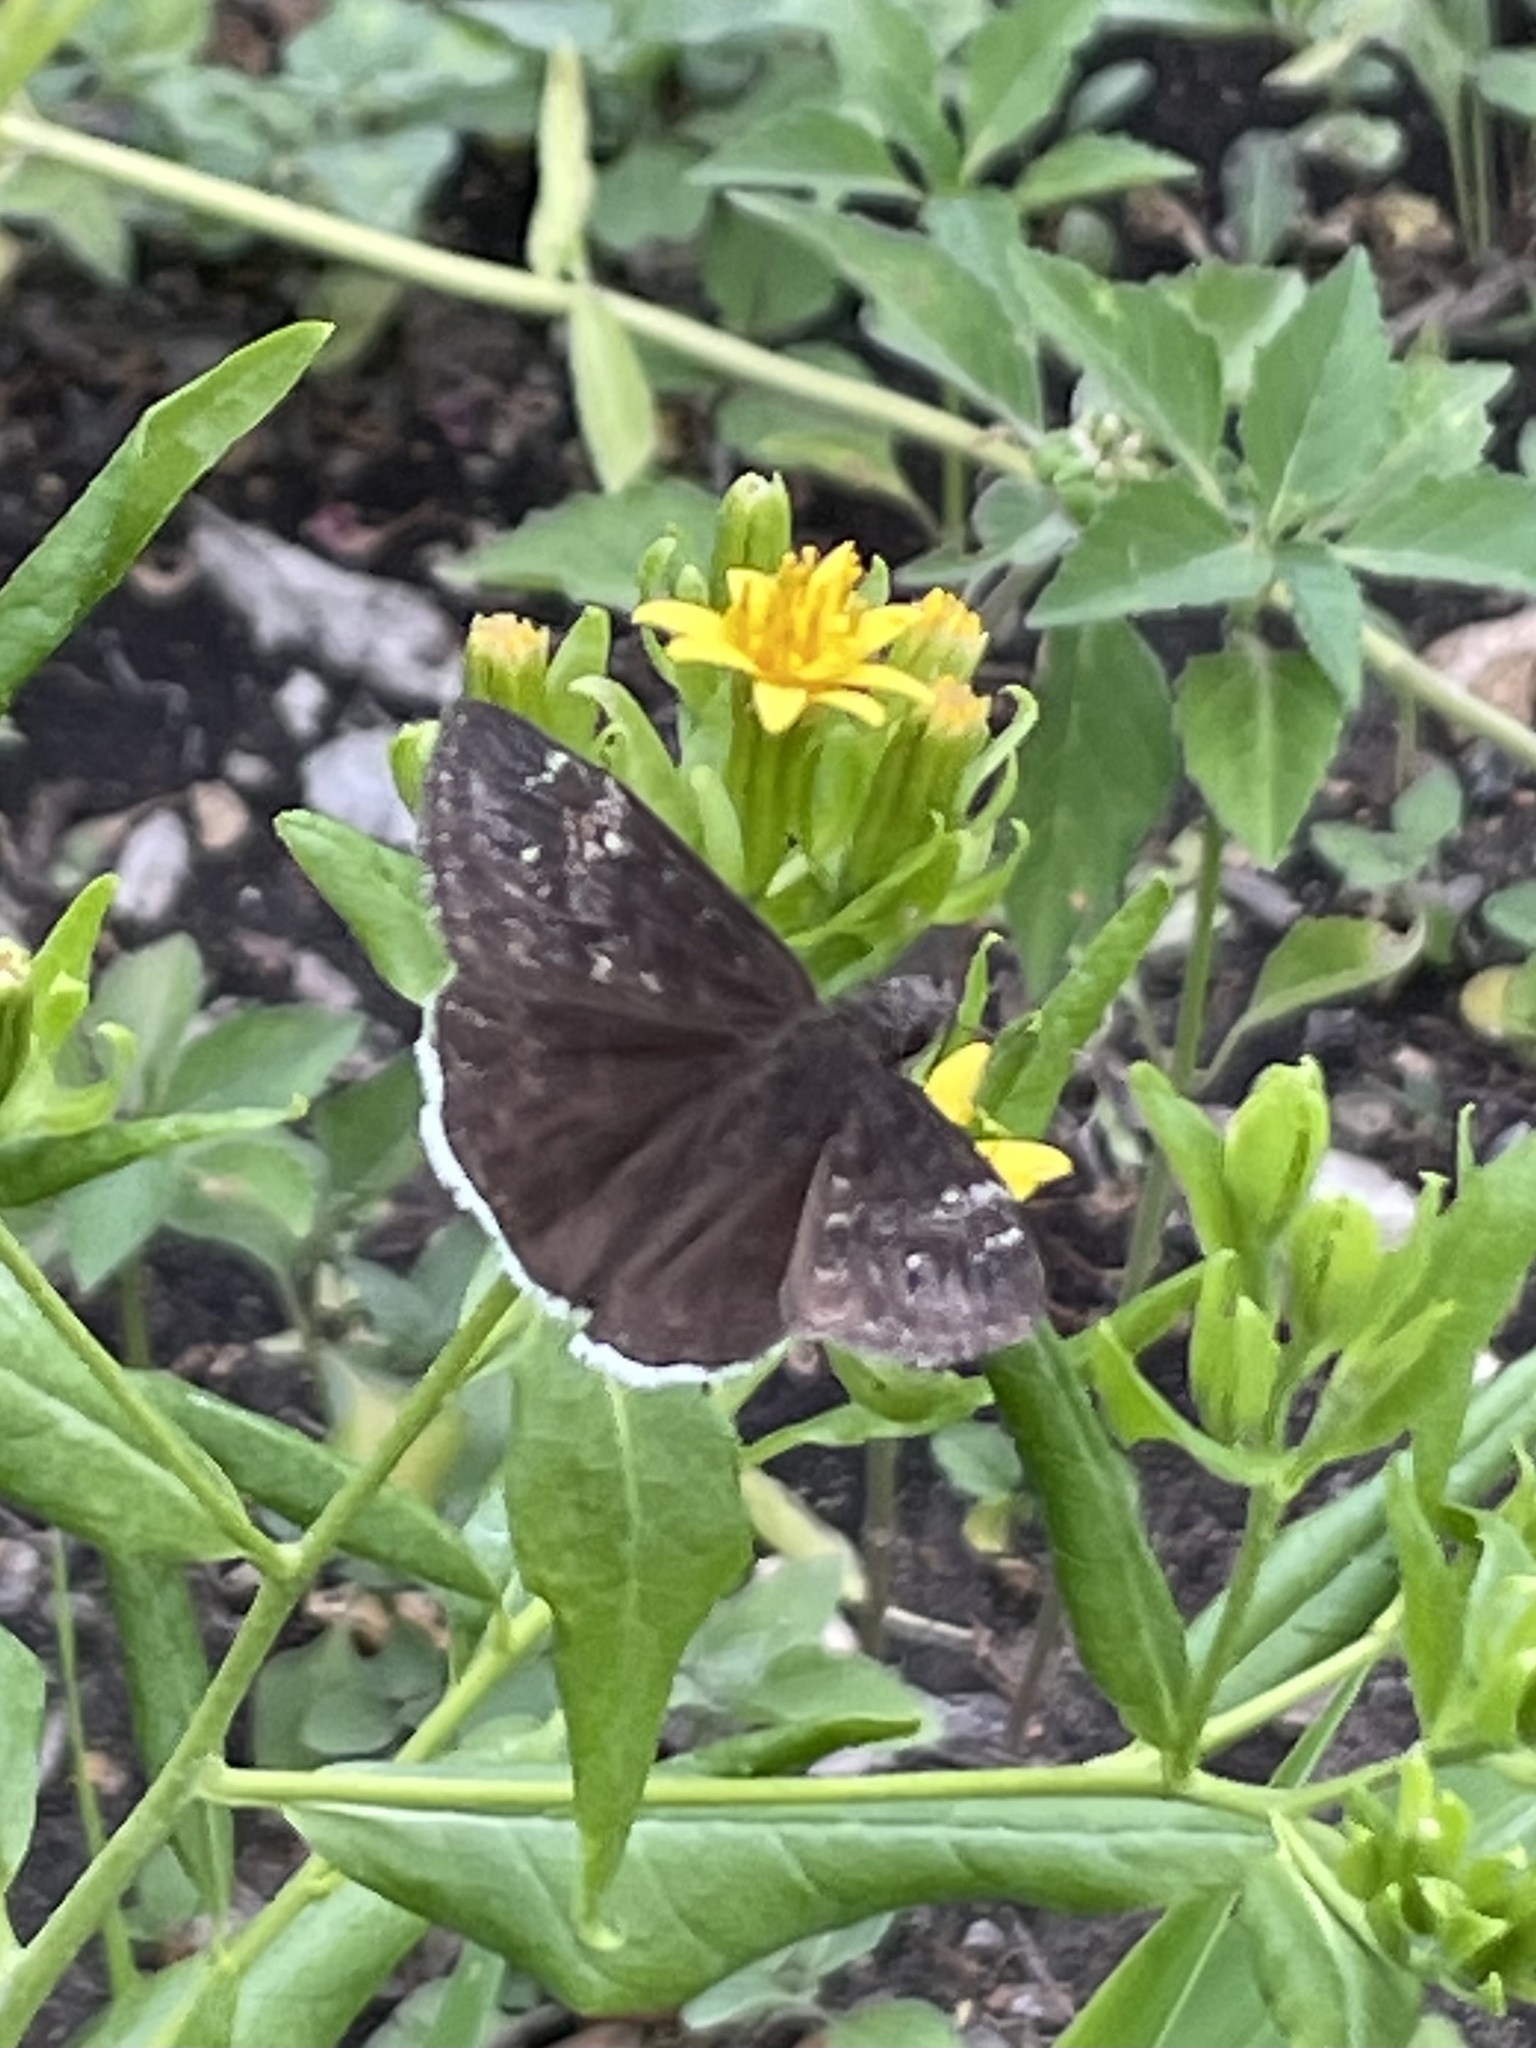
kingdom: Animalia
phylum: Arthropoda
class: Insecta
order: Lepidoptera
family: Hesperiidae
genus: Erynnis
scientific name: Erynnis funeralis
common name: Funereal duskywing
